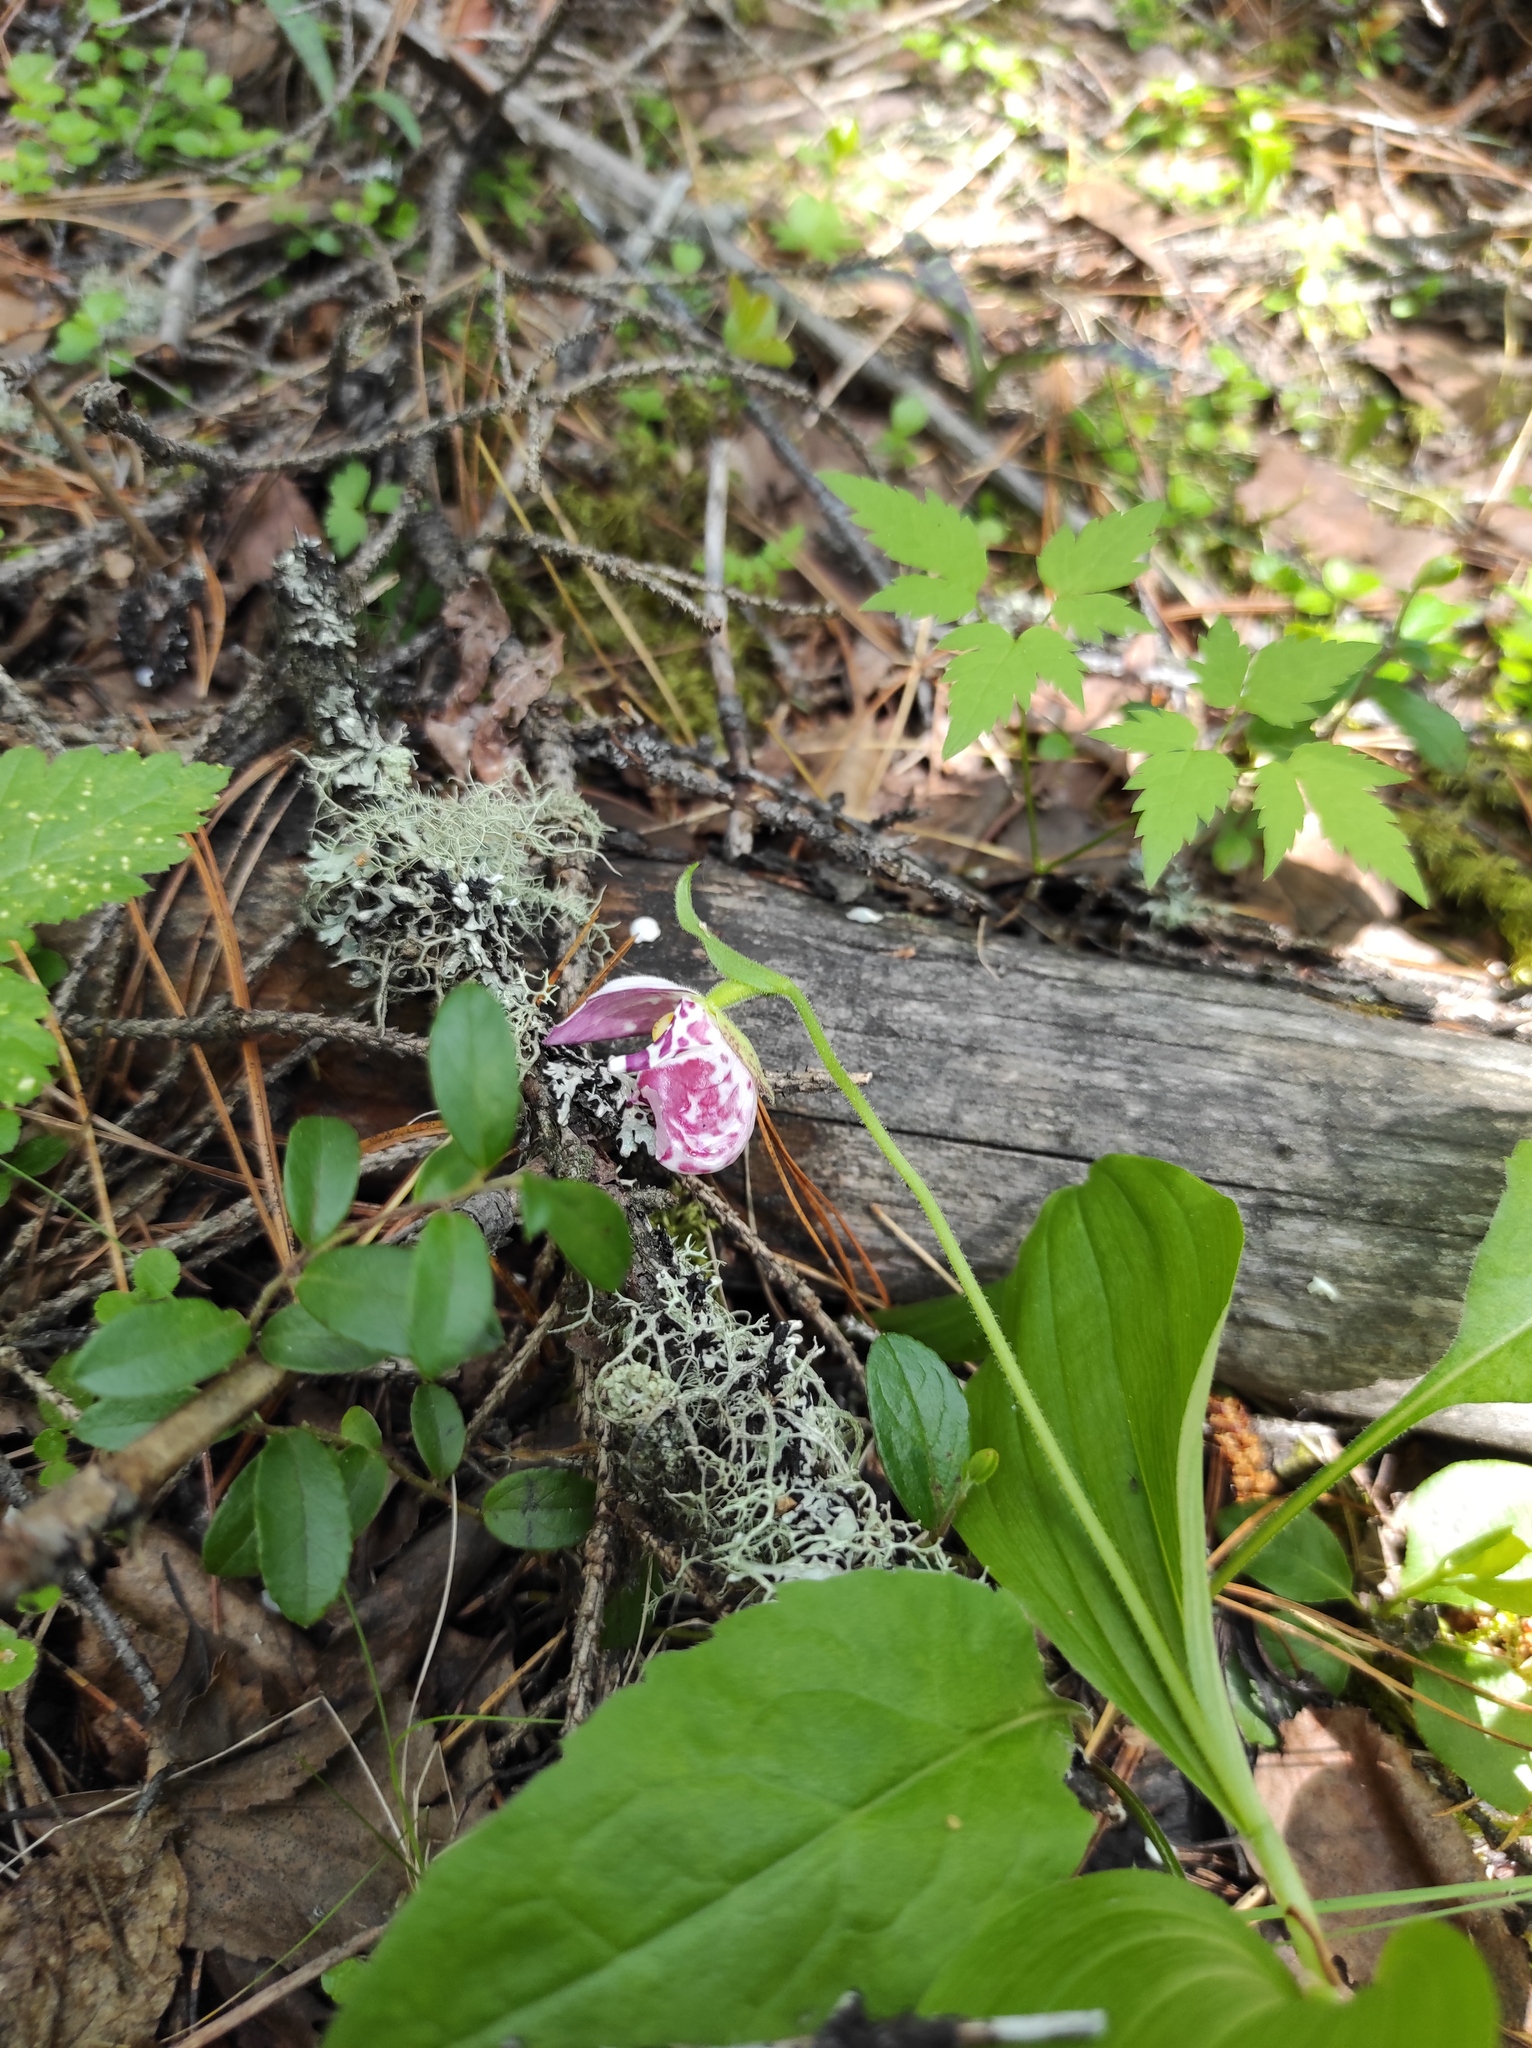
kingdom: Plantae
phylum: Tracheophyta
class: Liliopsida
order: Asparagales
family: Orchidaceae
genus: Cypripedium
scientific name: Cypripedium guttatum
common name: Pink lady slipper
